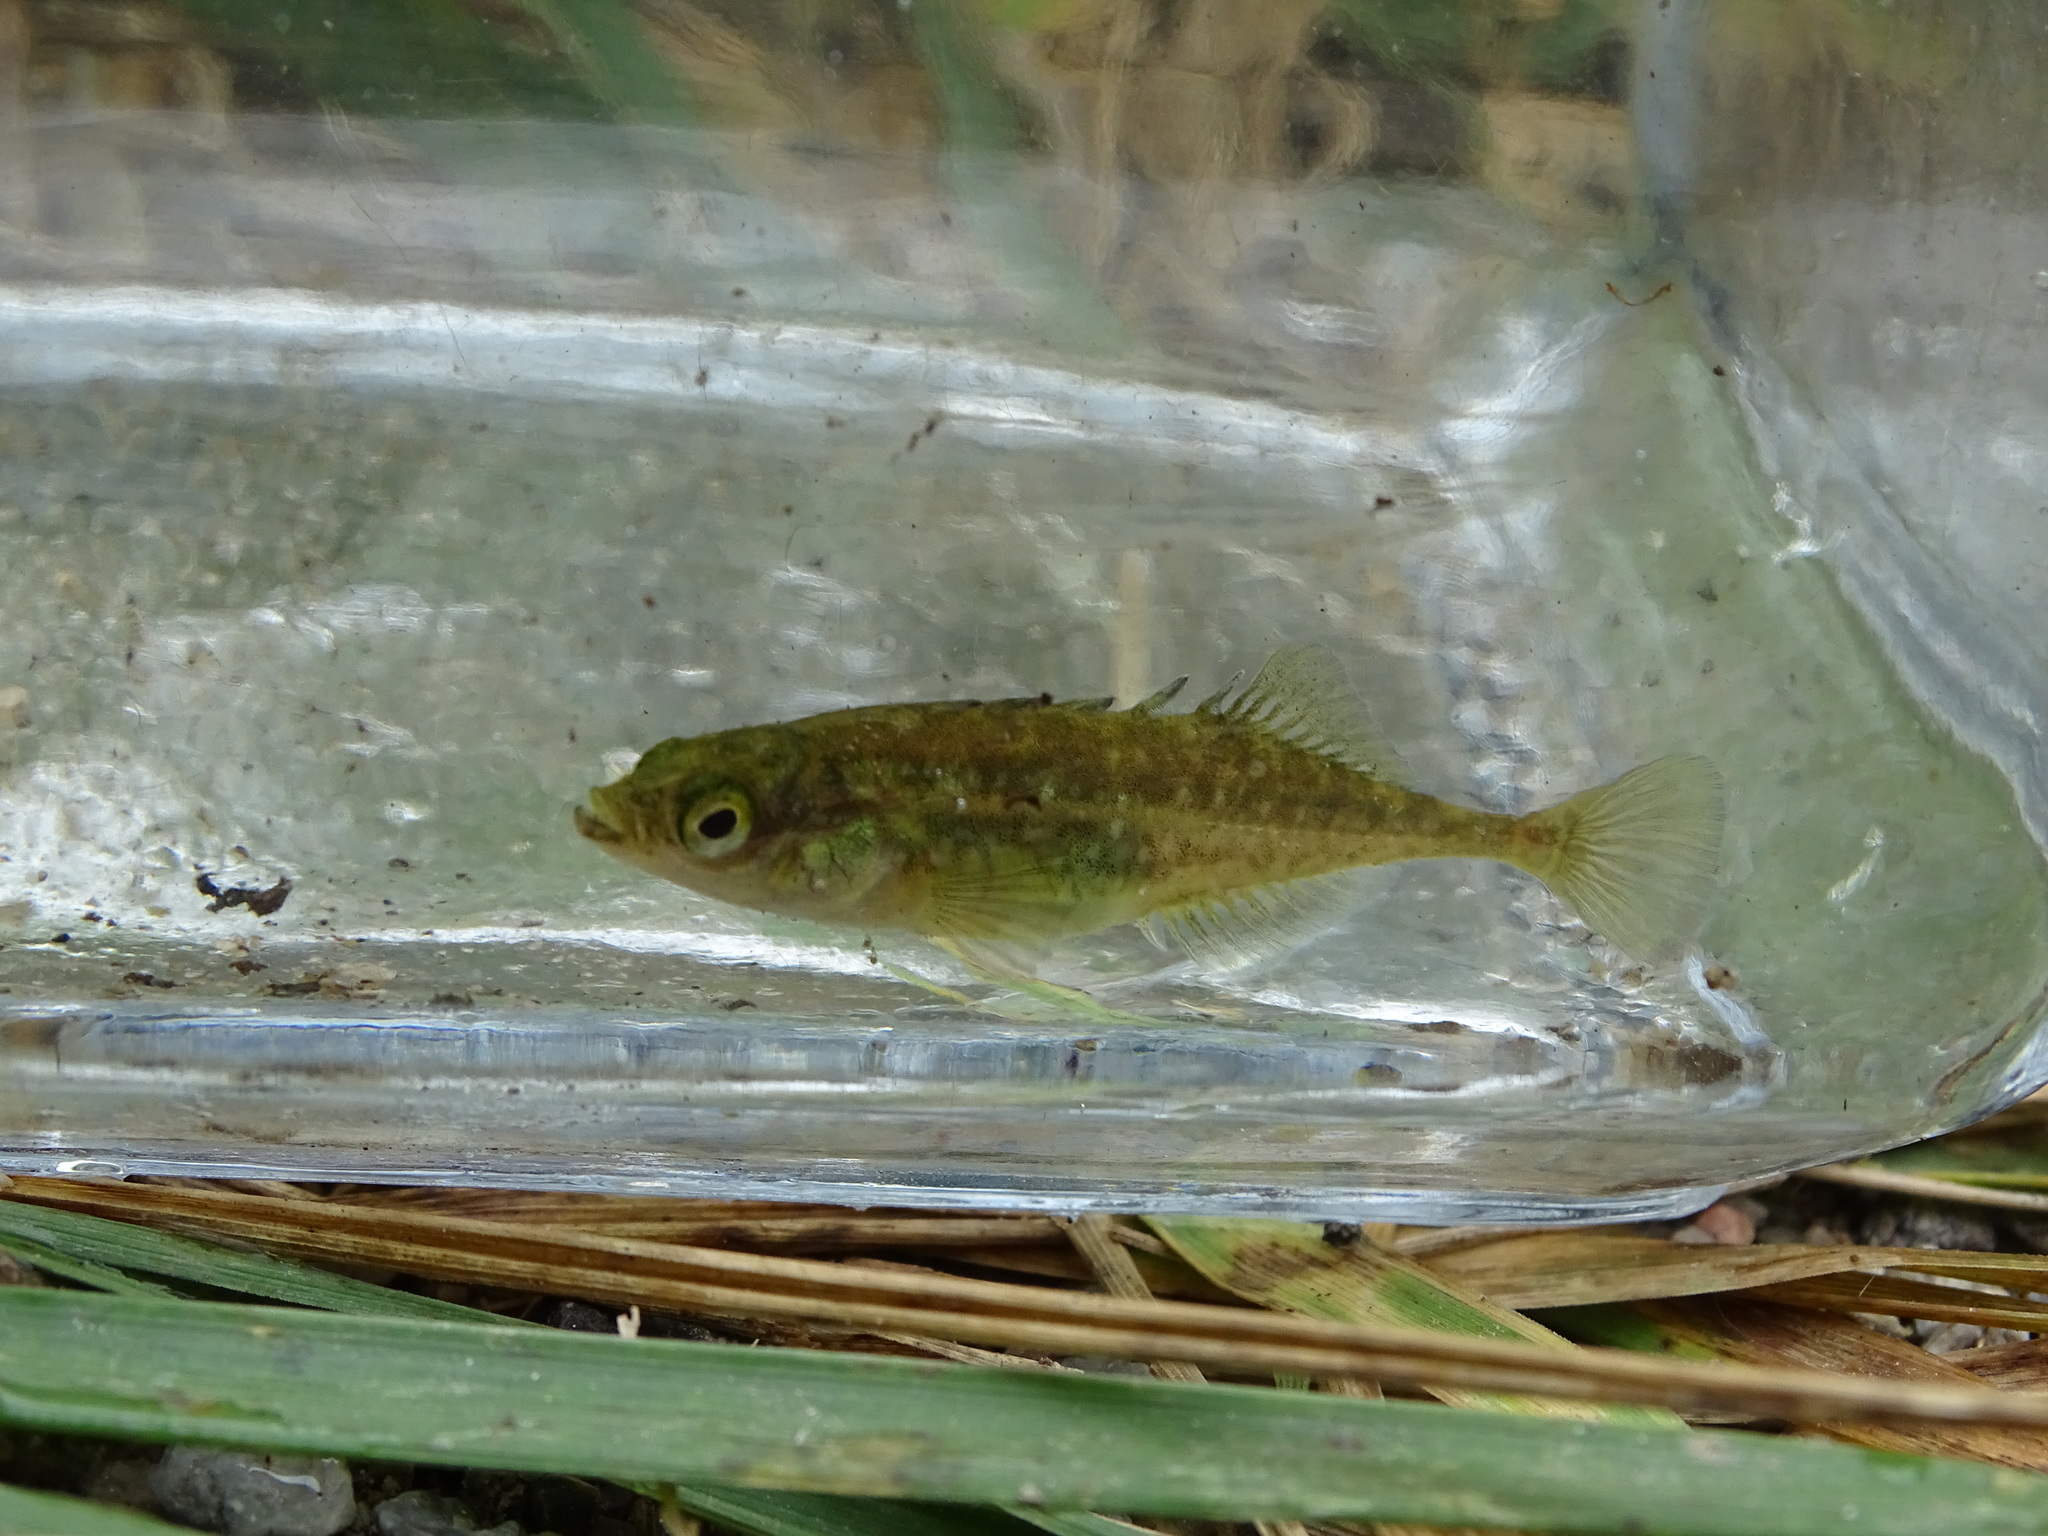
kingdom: Animalia
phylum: Chordata
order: Gasterosteiformes
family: Gasterosteidae
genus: Culaea
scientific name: Culaea inconstans
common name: Brook stickleback
